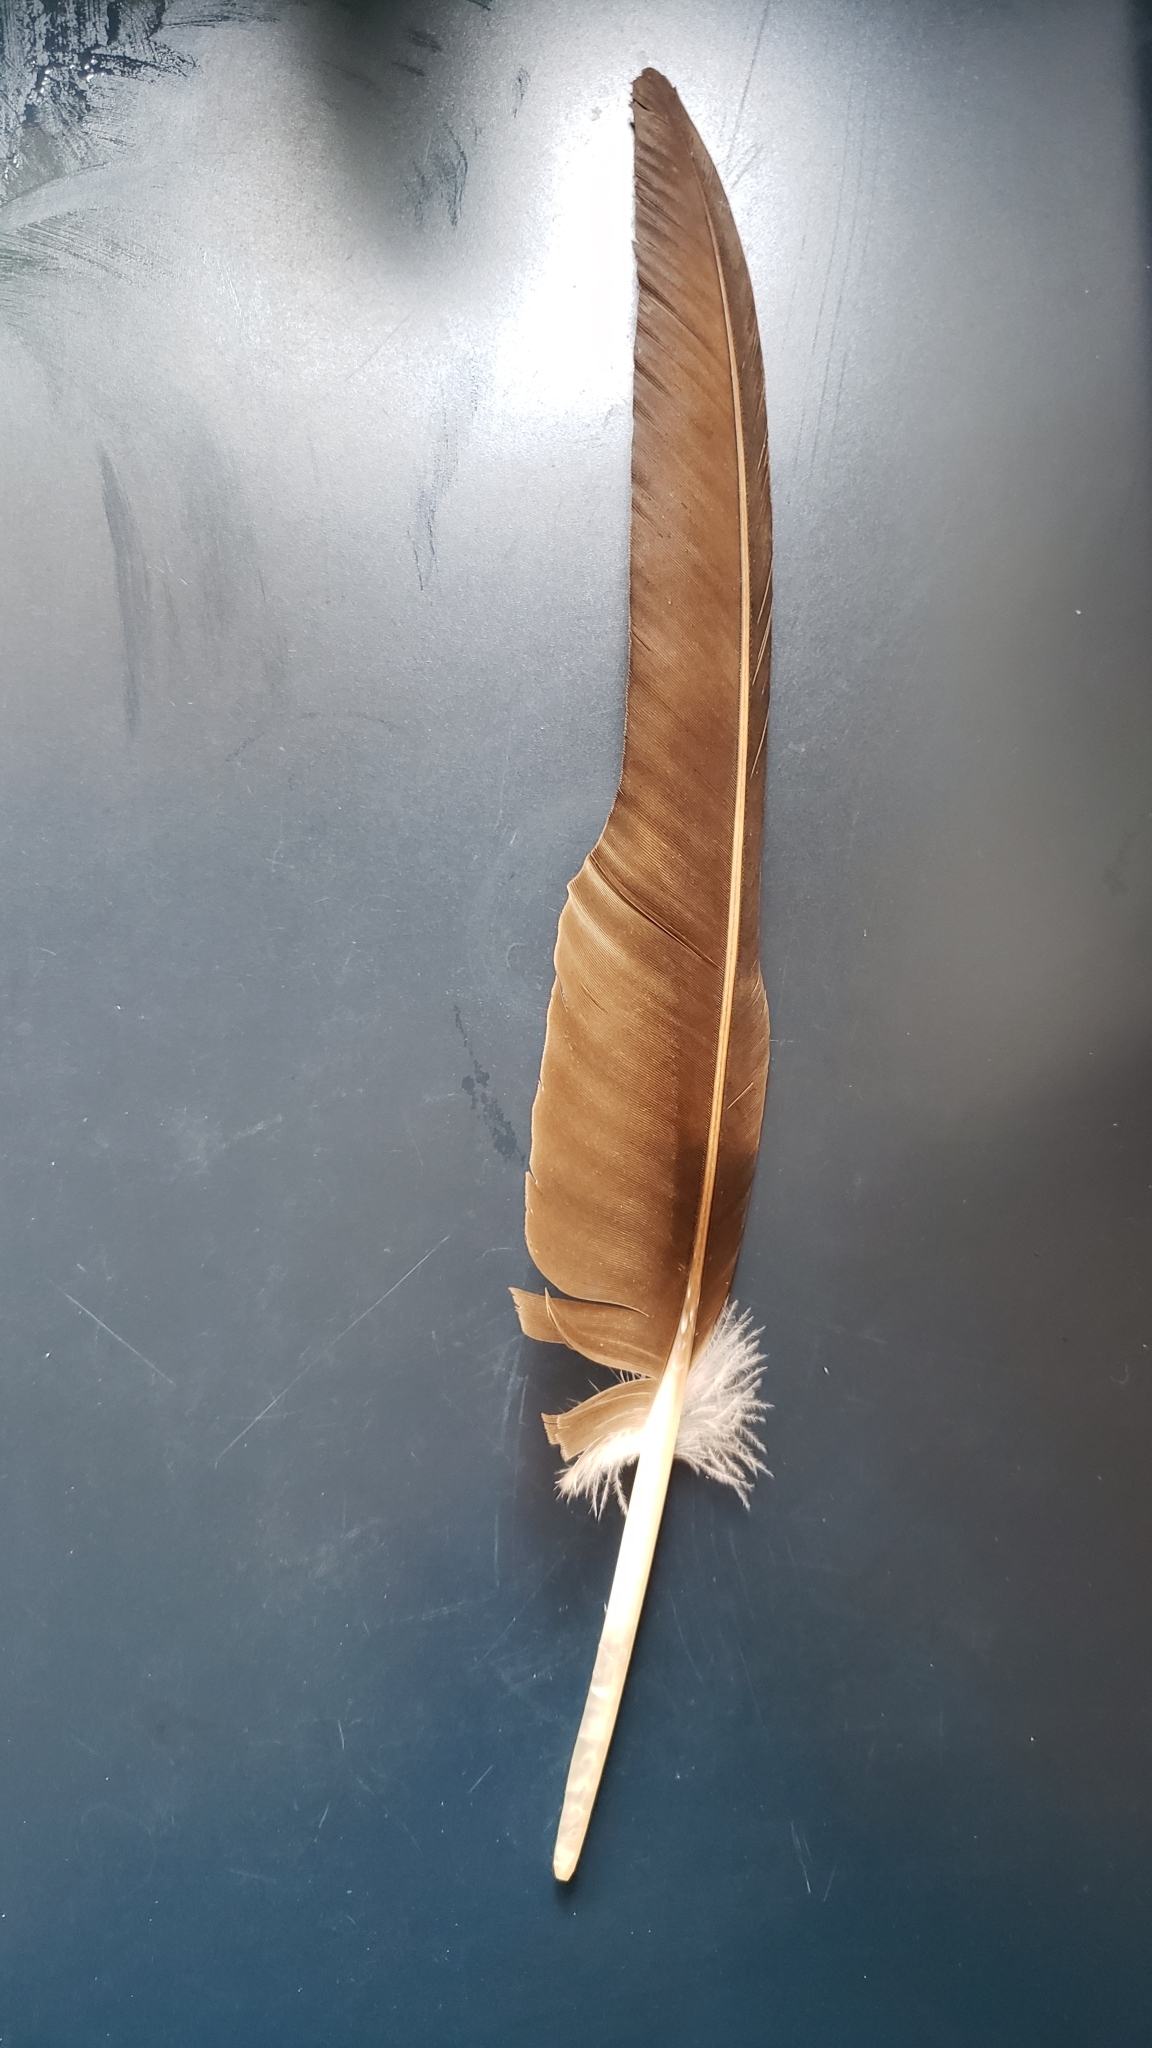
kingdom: Animalia
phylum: Chordata
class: Aves
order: Accipitriformes
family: Cathartidae
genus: Cathartes
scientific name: Cathartes aura
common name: Turkey vulture
